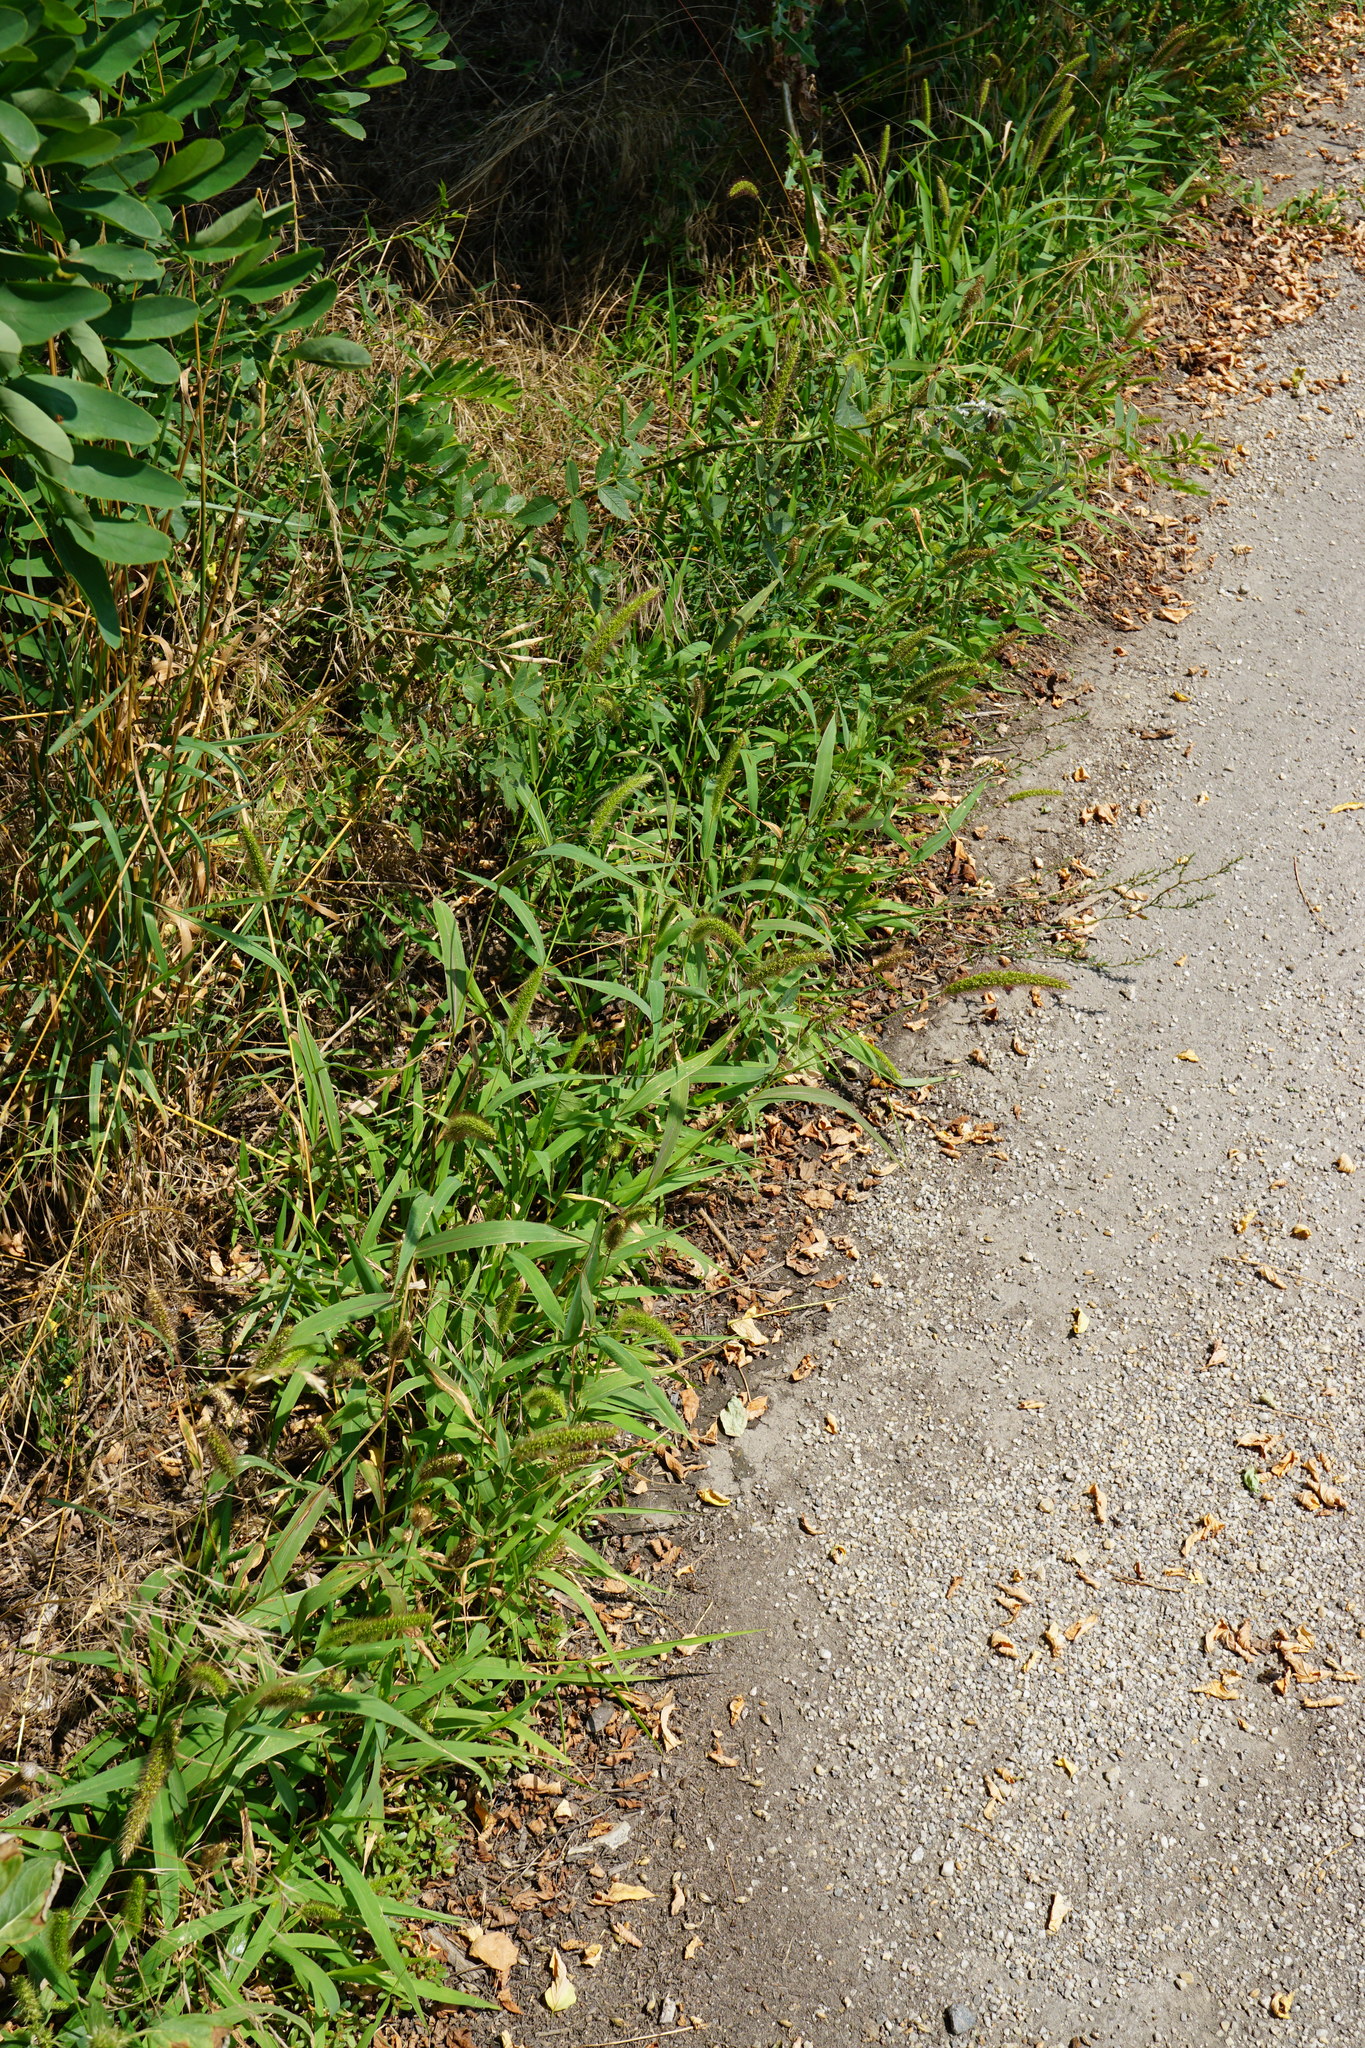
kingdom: Plantae
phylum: Tracheophyta
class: Liliopsida
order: Poales
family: Poaceae
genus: Setaria
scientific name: Setaria viridis
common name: Green bristlegrass
